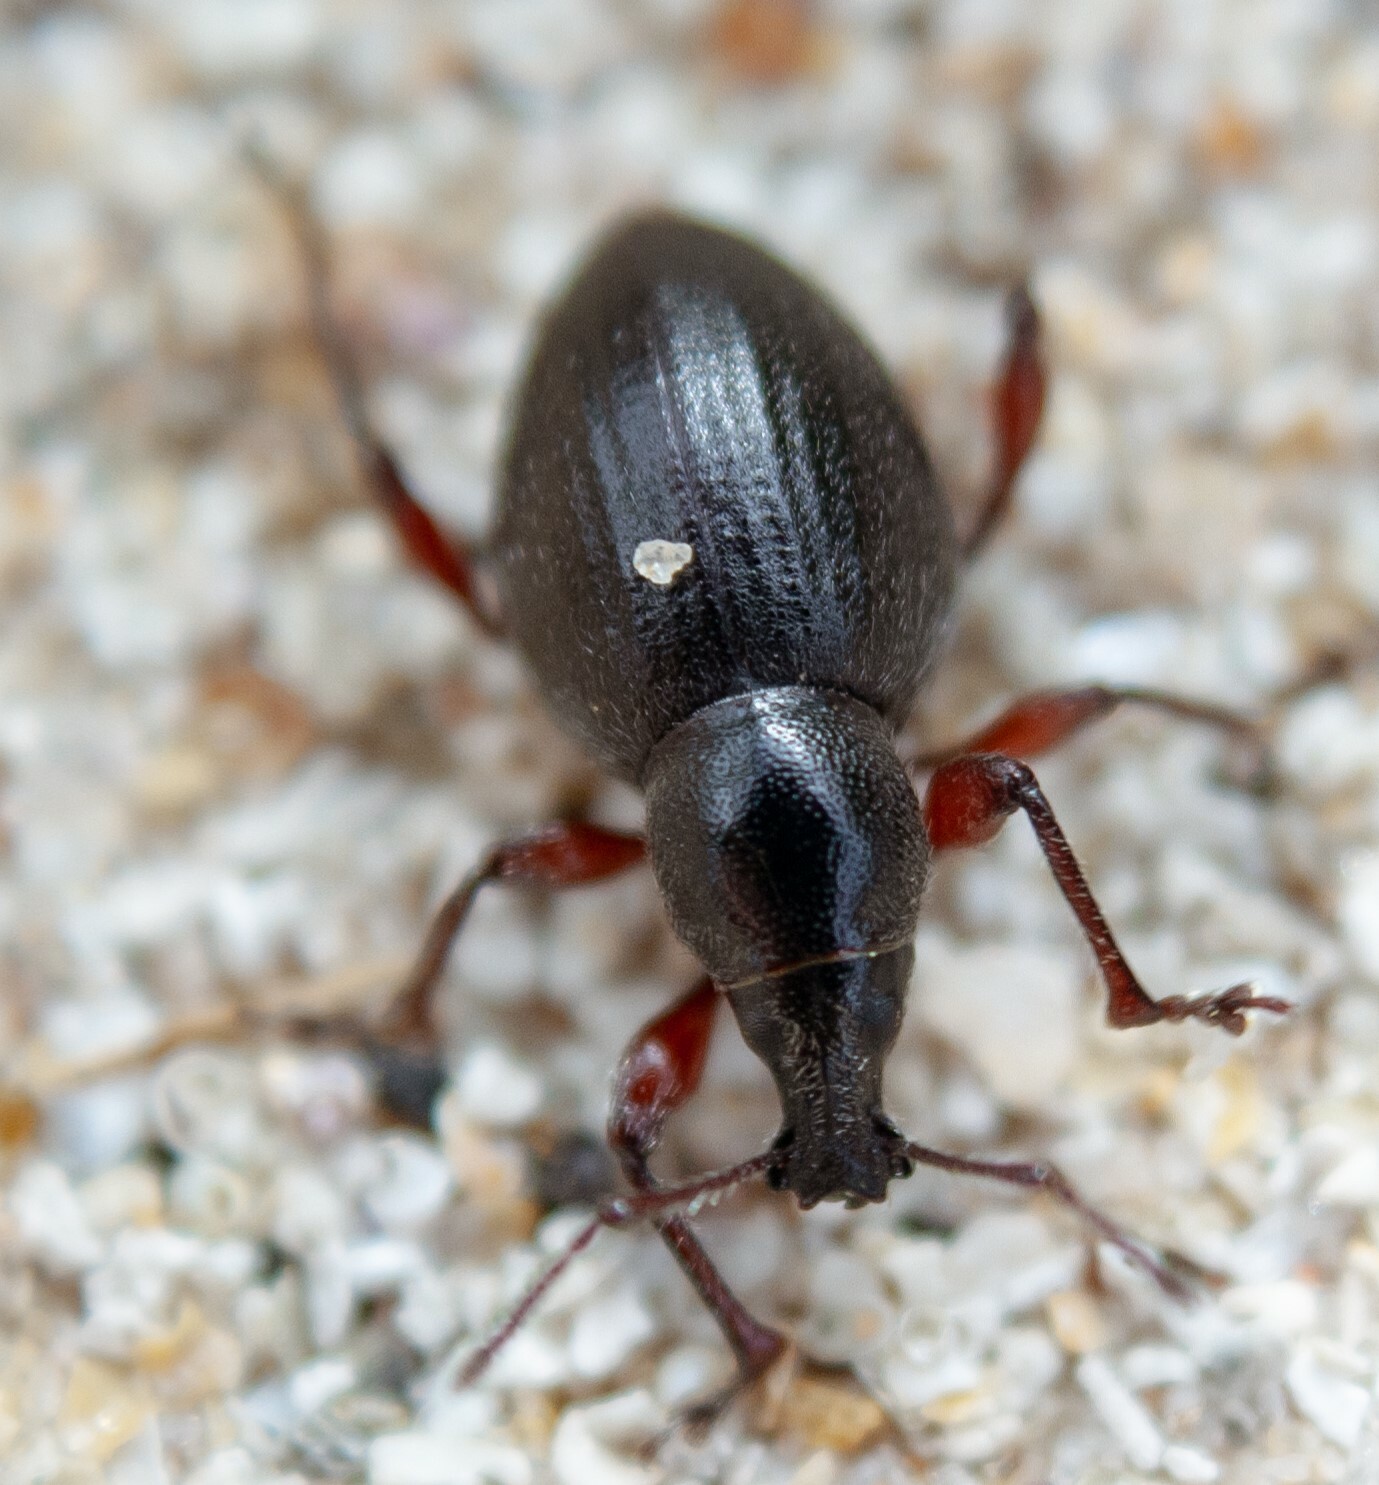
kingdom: Animalia
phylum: Arthropoda
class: Insecta
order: Coleoptera
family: Curculionidae
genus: Otiorhynchus
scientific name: Otiorhynchus atroapterus
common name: Black marram weevil
